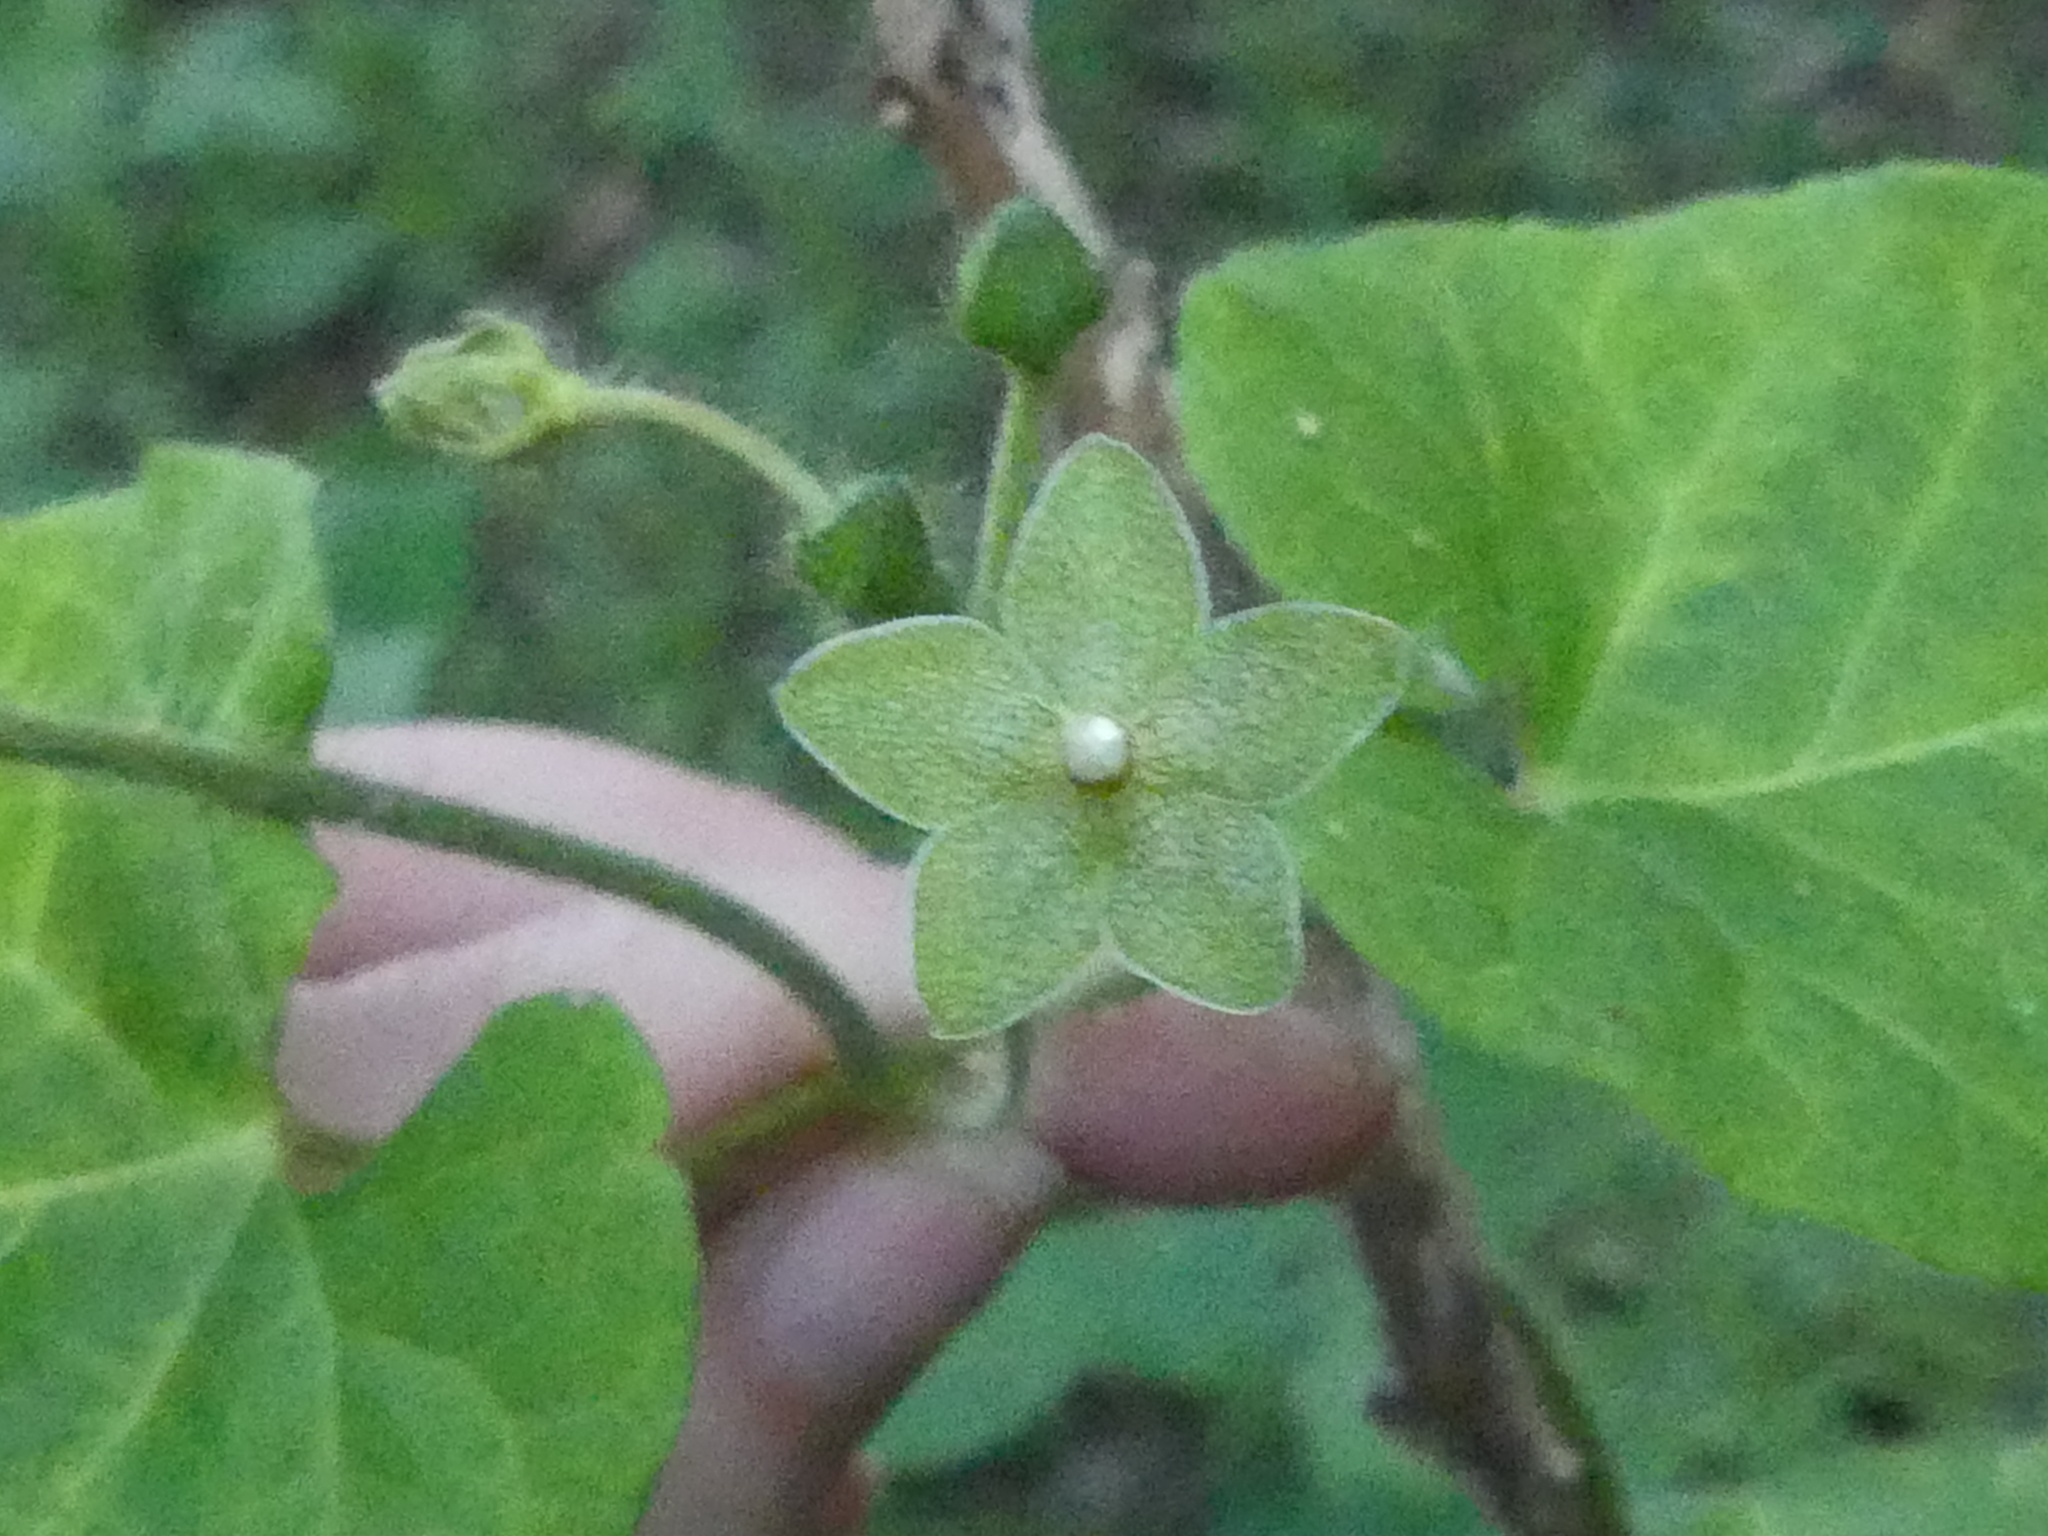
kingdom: Plantae
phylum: Tracheophyta
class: Magnoliopsida
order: Gentianales
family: Apocynaceae
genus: Dictyanthus
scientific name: Dictyanthus reticulatus
